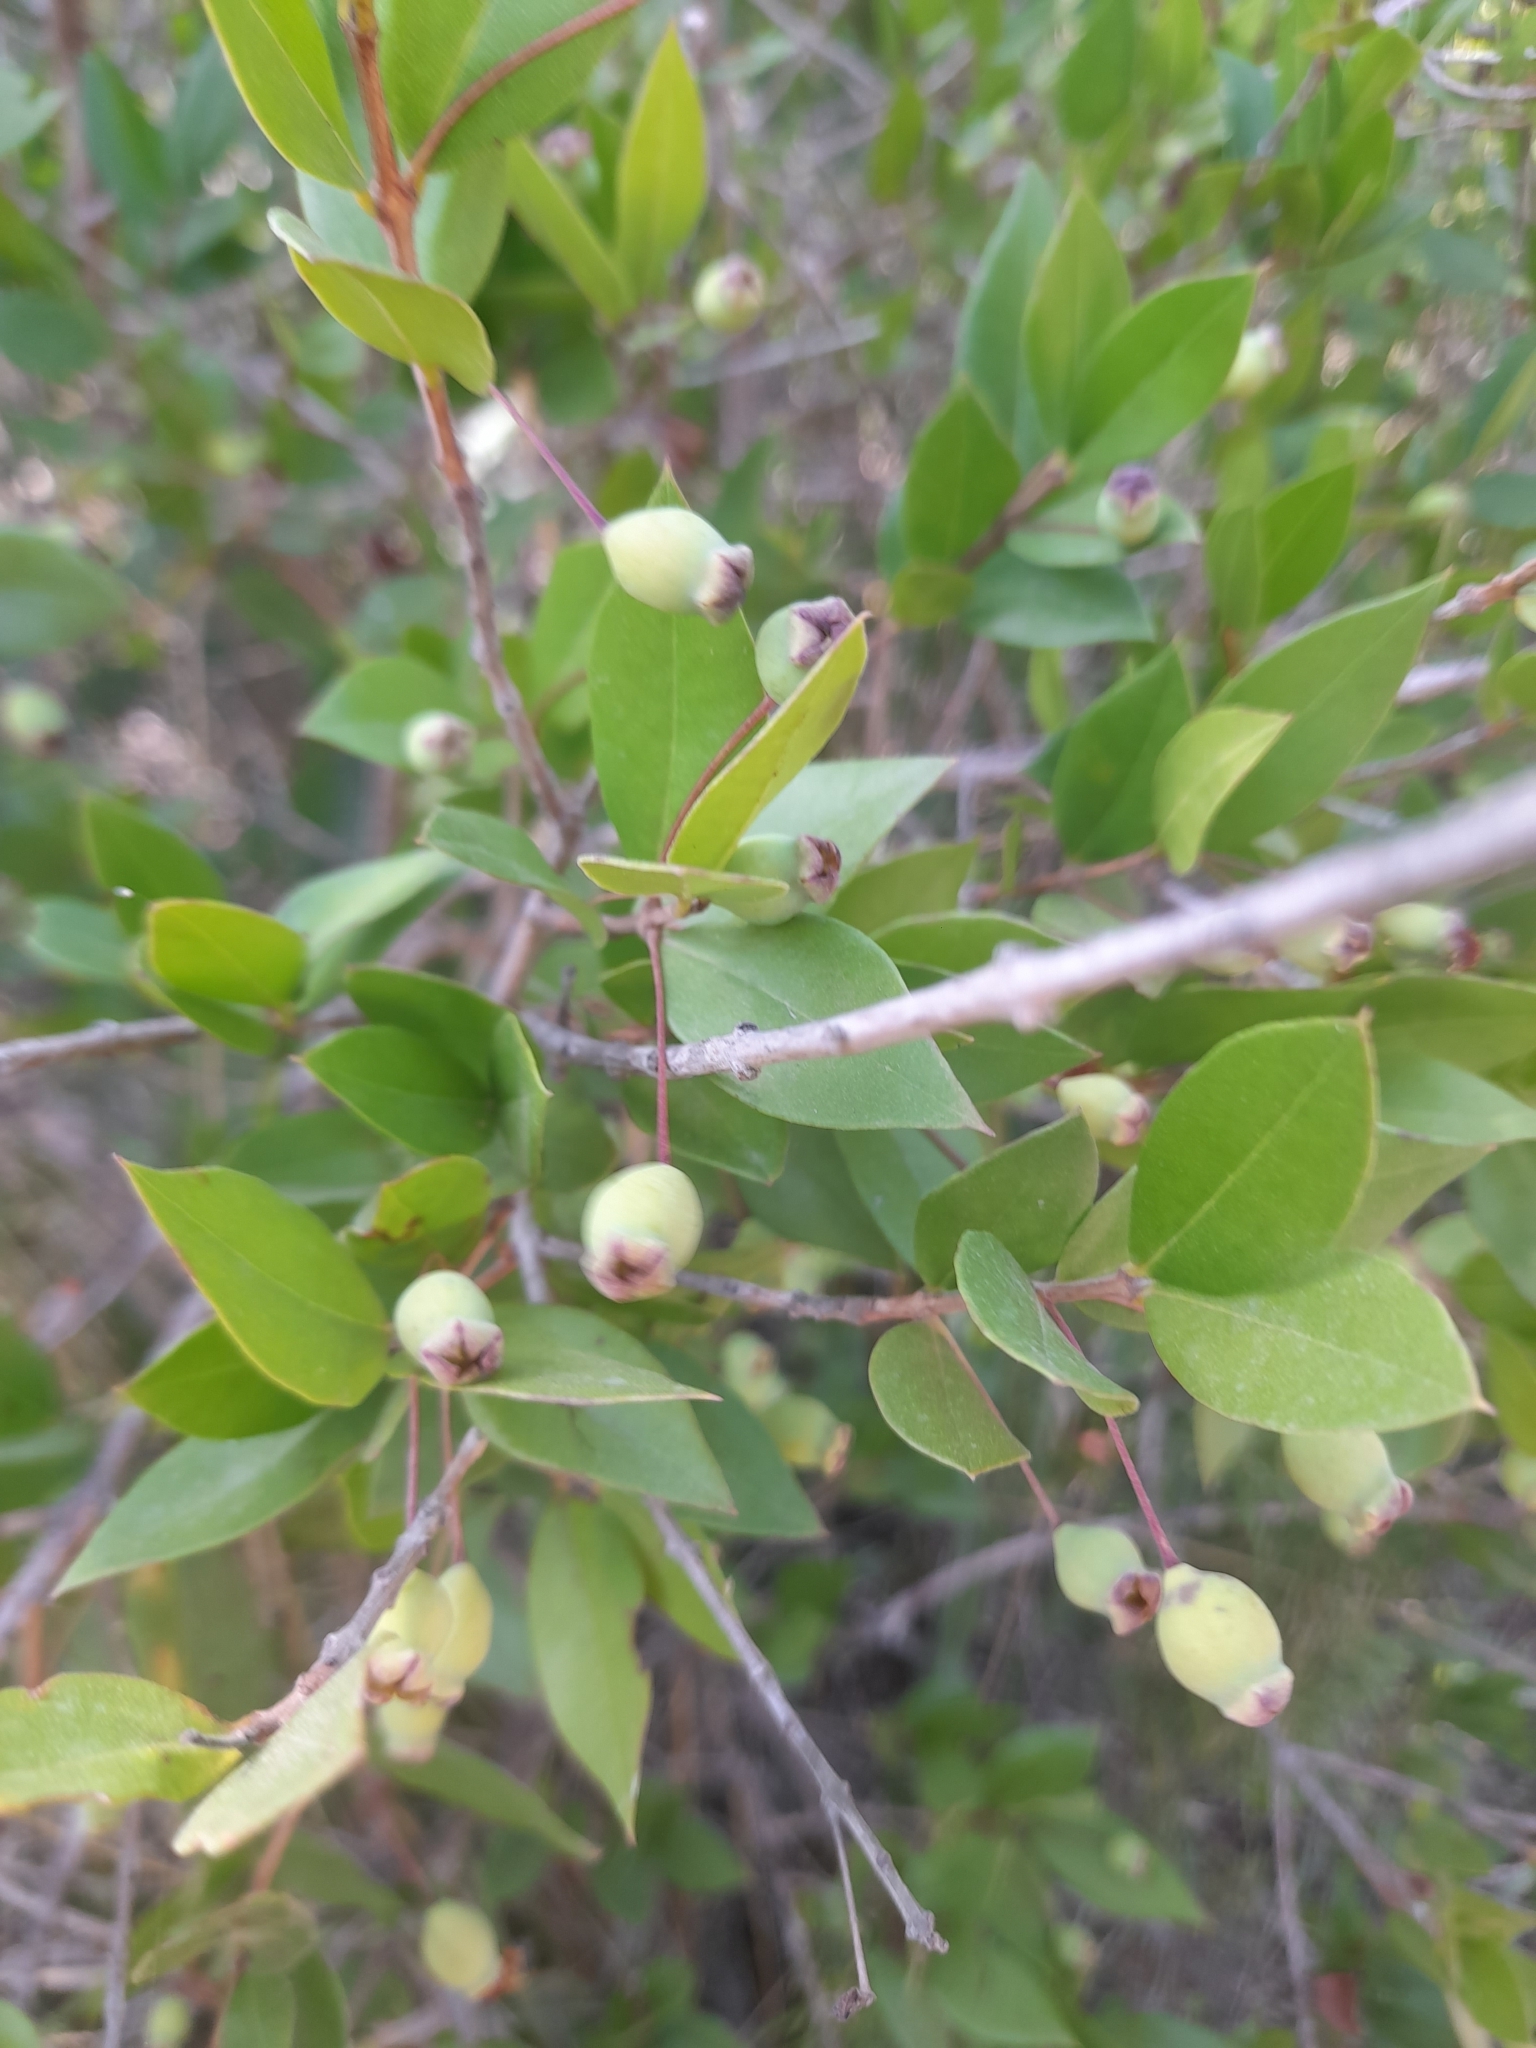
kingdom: Plantae
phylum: Tracheophyta
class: Magnoliopsida
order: Myrtales
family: Myrtaceae
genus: Myrtus
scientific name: Myrtus communis
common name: Myrtle
